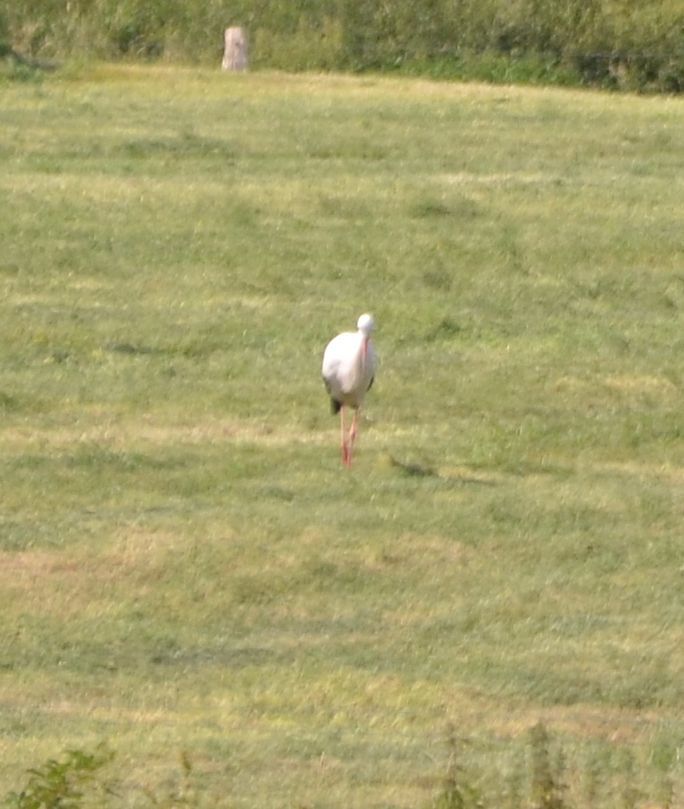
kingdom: Animalia
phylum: Chordata
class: Aves
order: Ciconiiformes
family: Ciconiidae
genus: Ciconia
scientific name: Ciconia ciconia
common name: White stork
